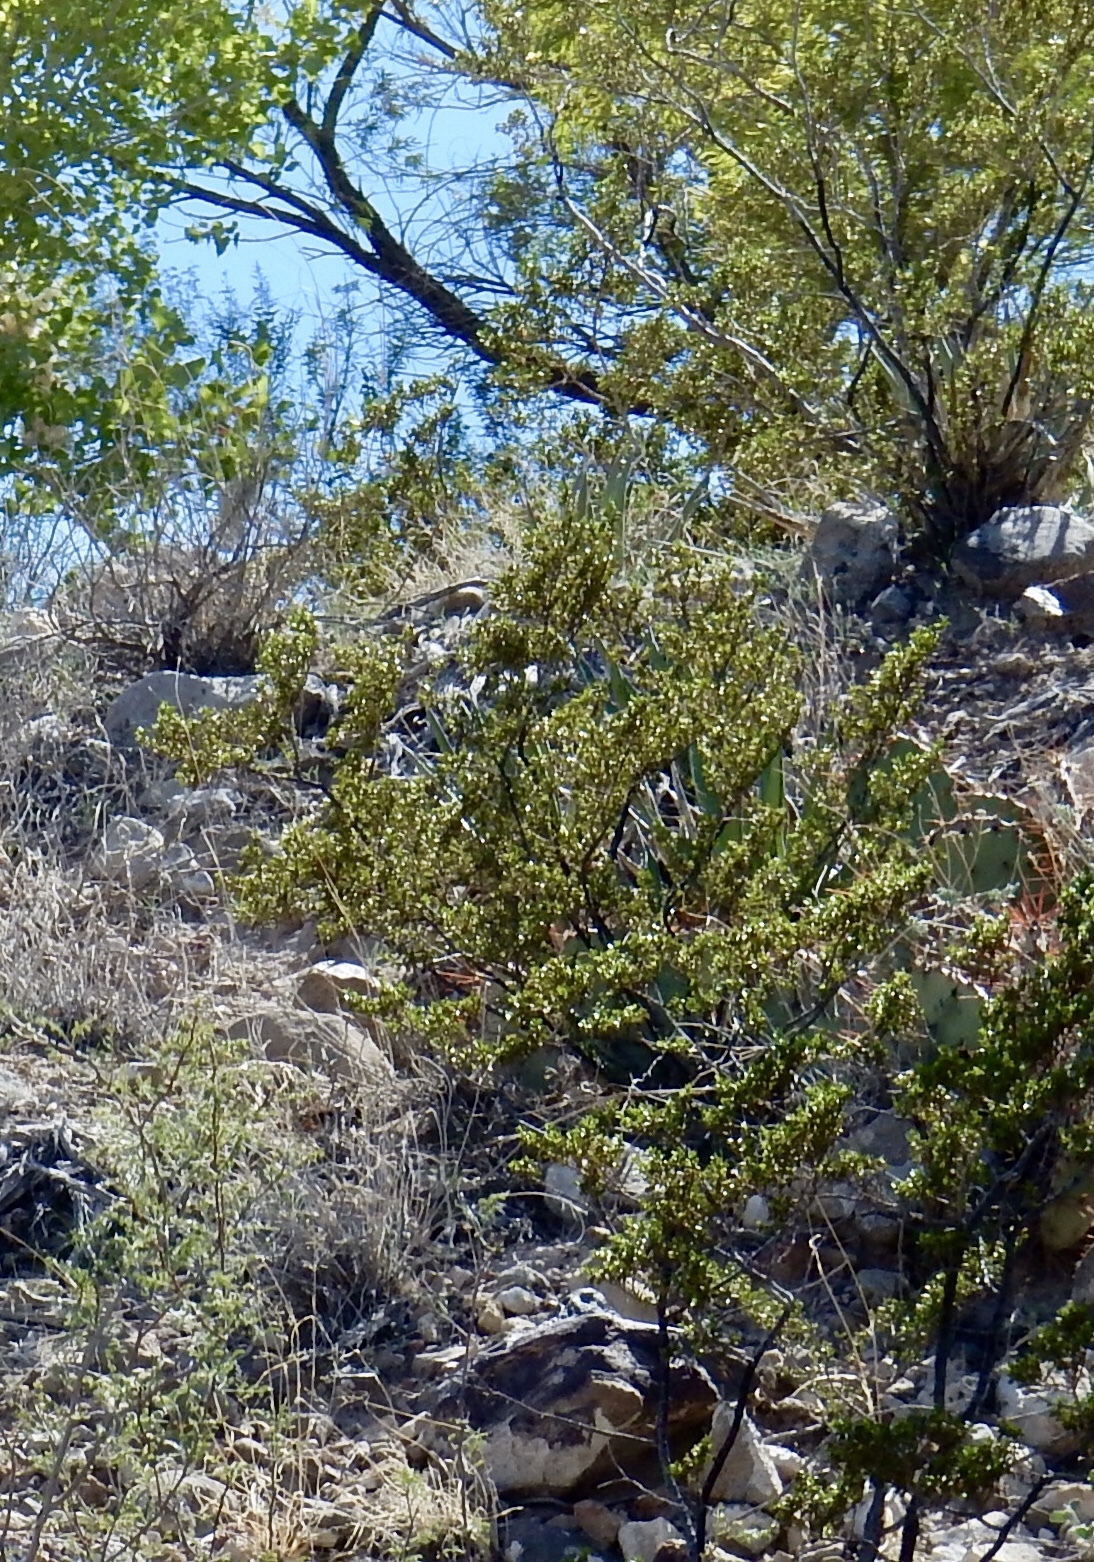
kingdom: Plantae
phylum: Tracheophyta
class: Magnoliopsida
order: Zygophyllales
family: Zygophyllaceae
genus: Larrea
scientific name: Larrea tridentata
